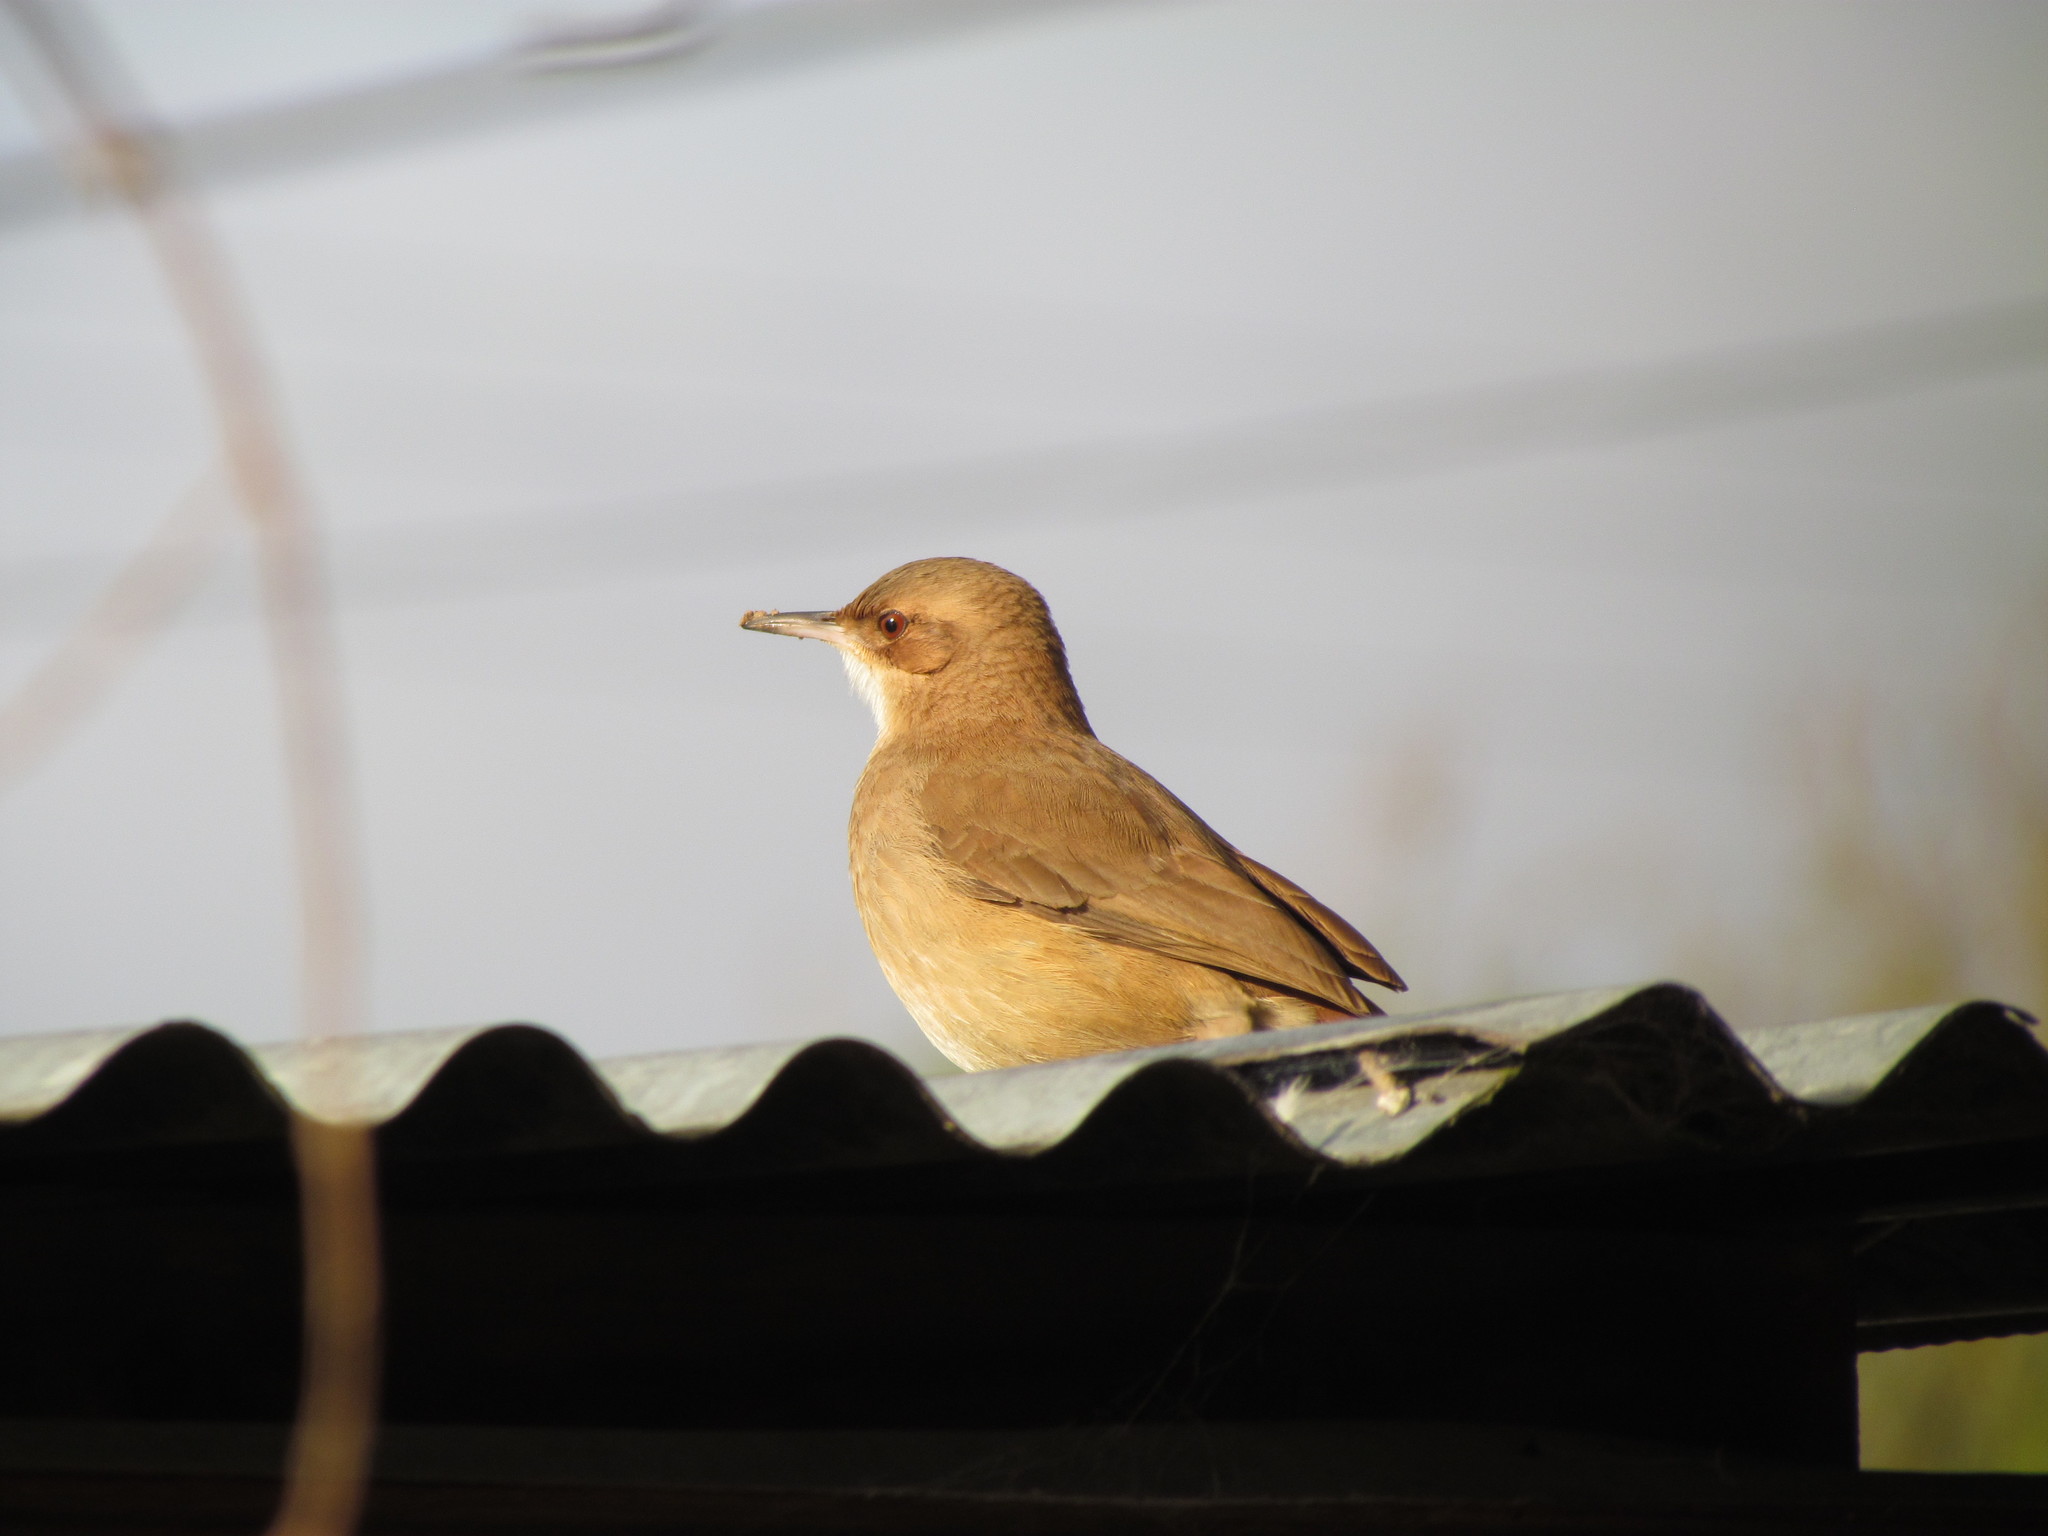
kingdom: Animalia
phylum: Chordata
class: Aves
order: Passeriformes
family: Furnariidae
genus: Furnarius
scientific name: Furnarius rufus
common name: Rufous hornero
